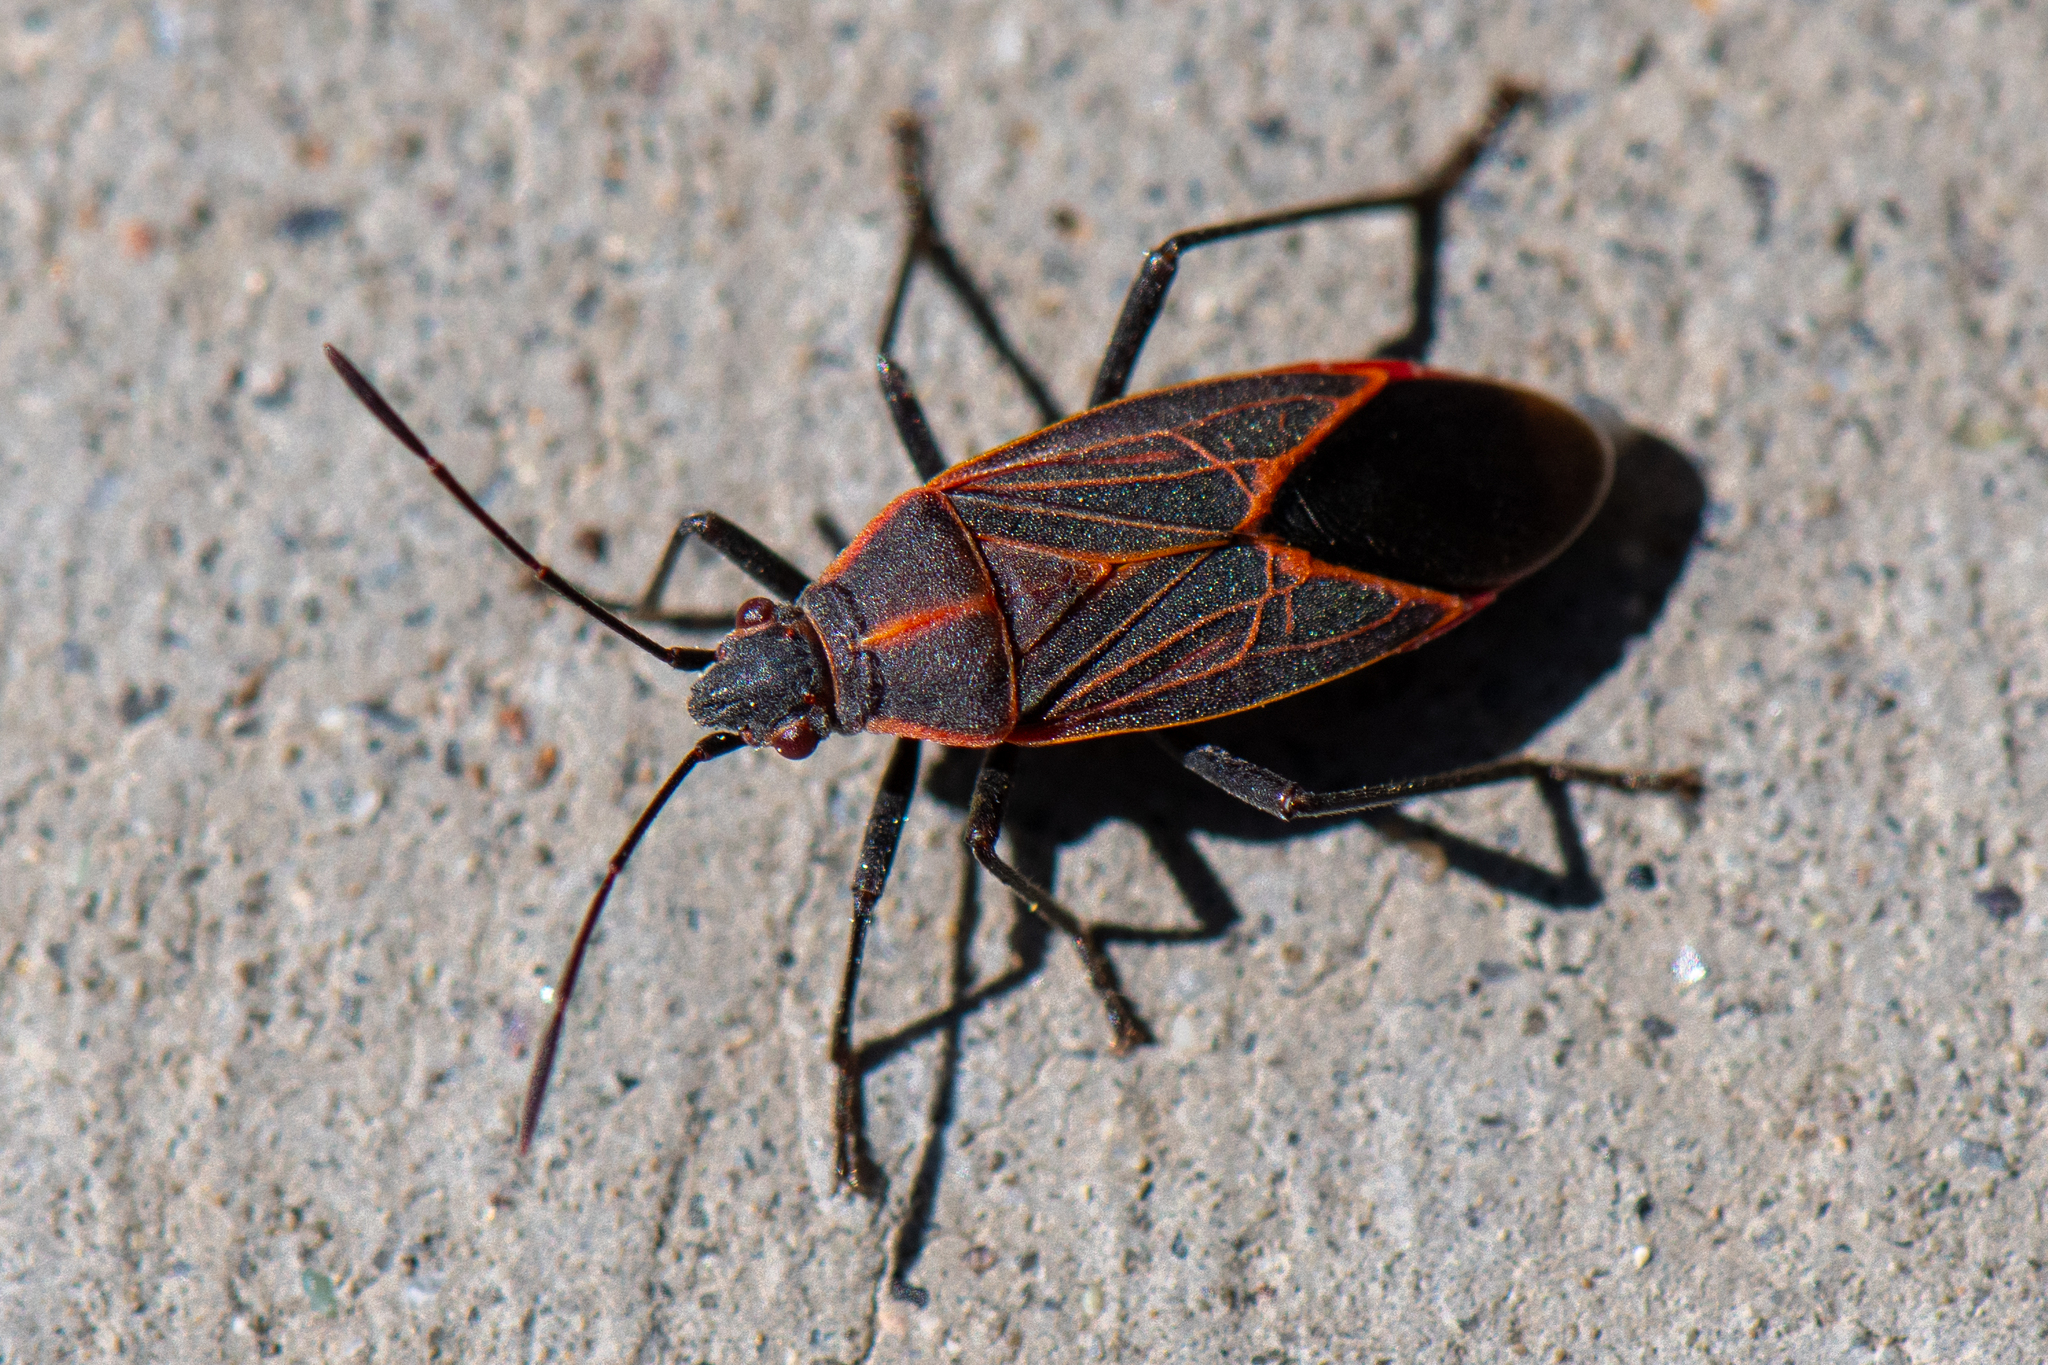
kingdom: Animalia
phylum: Arthropoda
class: Insecta
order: Hemiptera
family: Rhopalidae
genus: Boisea
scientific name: Boisea rubrolineata
